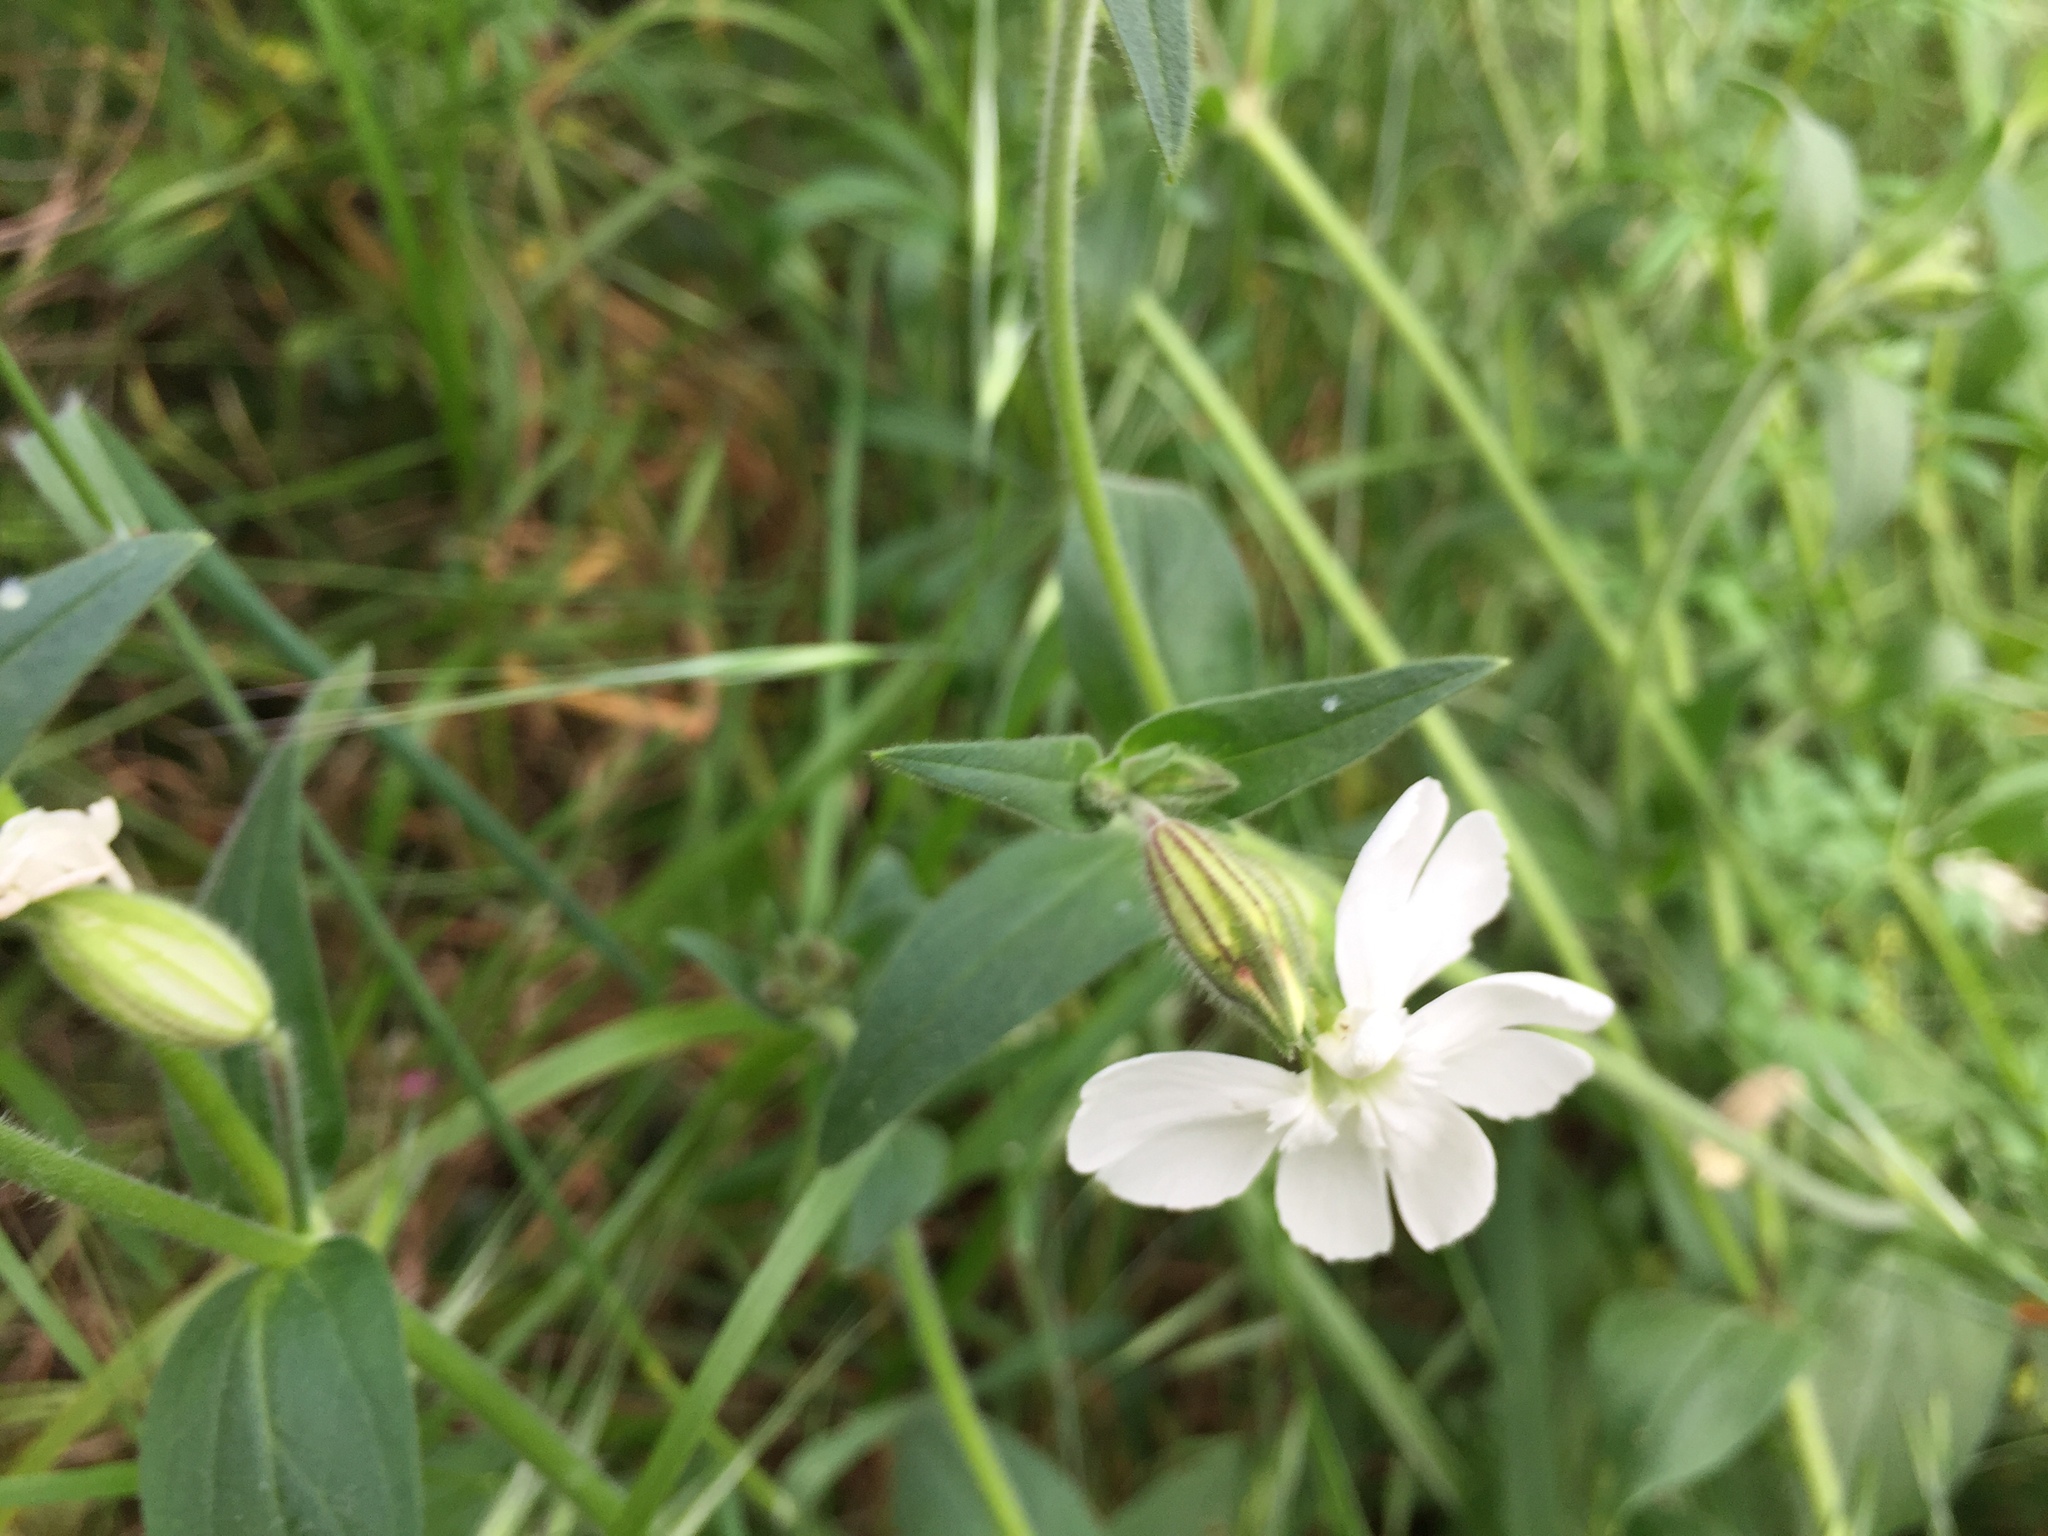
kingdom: Plantae
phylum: Tracheophyta
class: Magnoliopsida
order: Caryophyllales
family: Caryophyllaceae
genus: Silene
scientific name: Silene latifolia
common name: White campion
